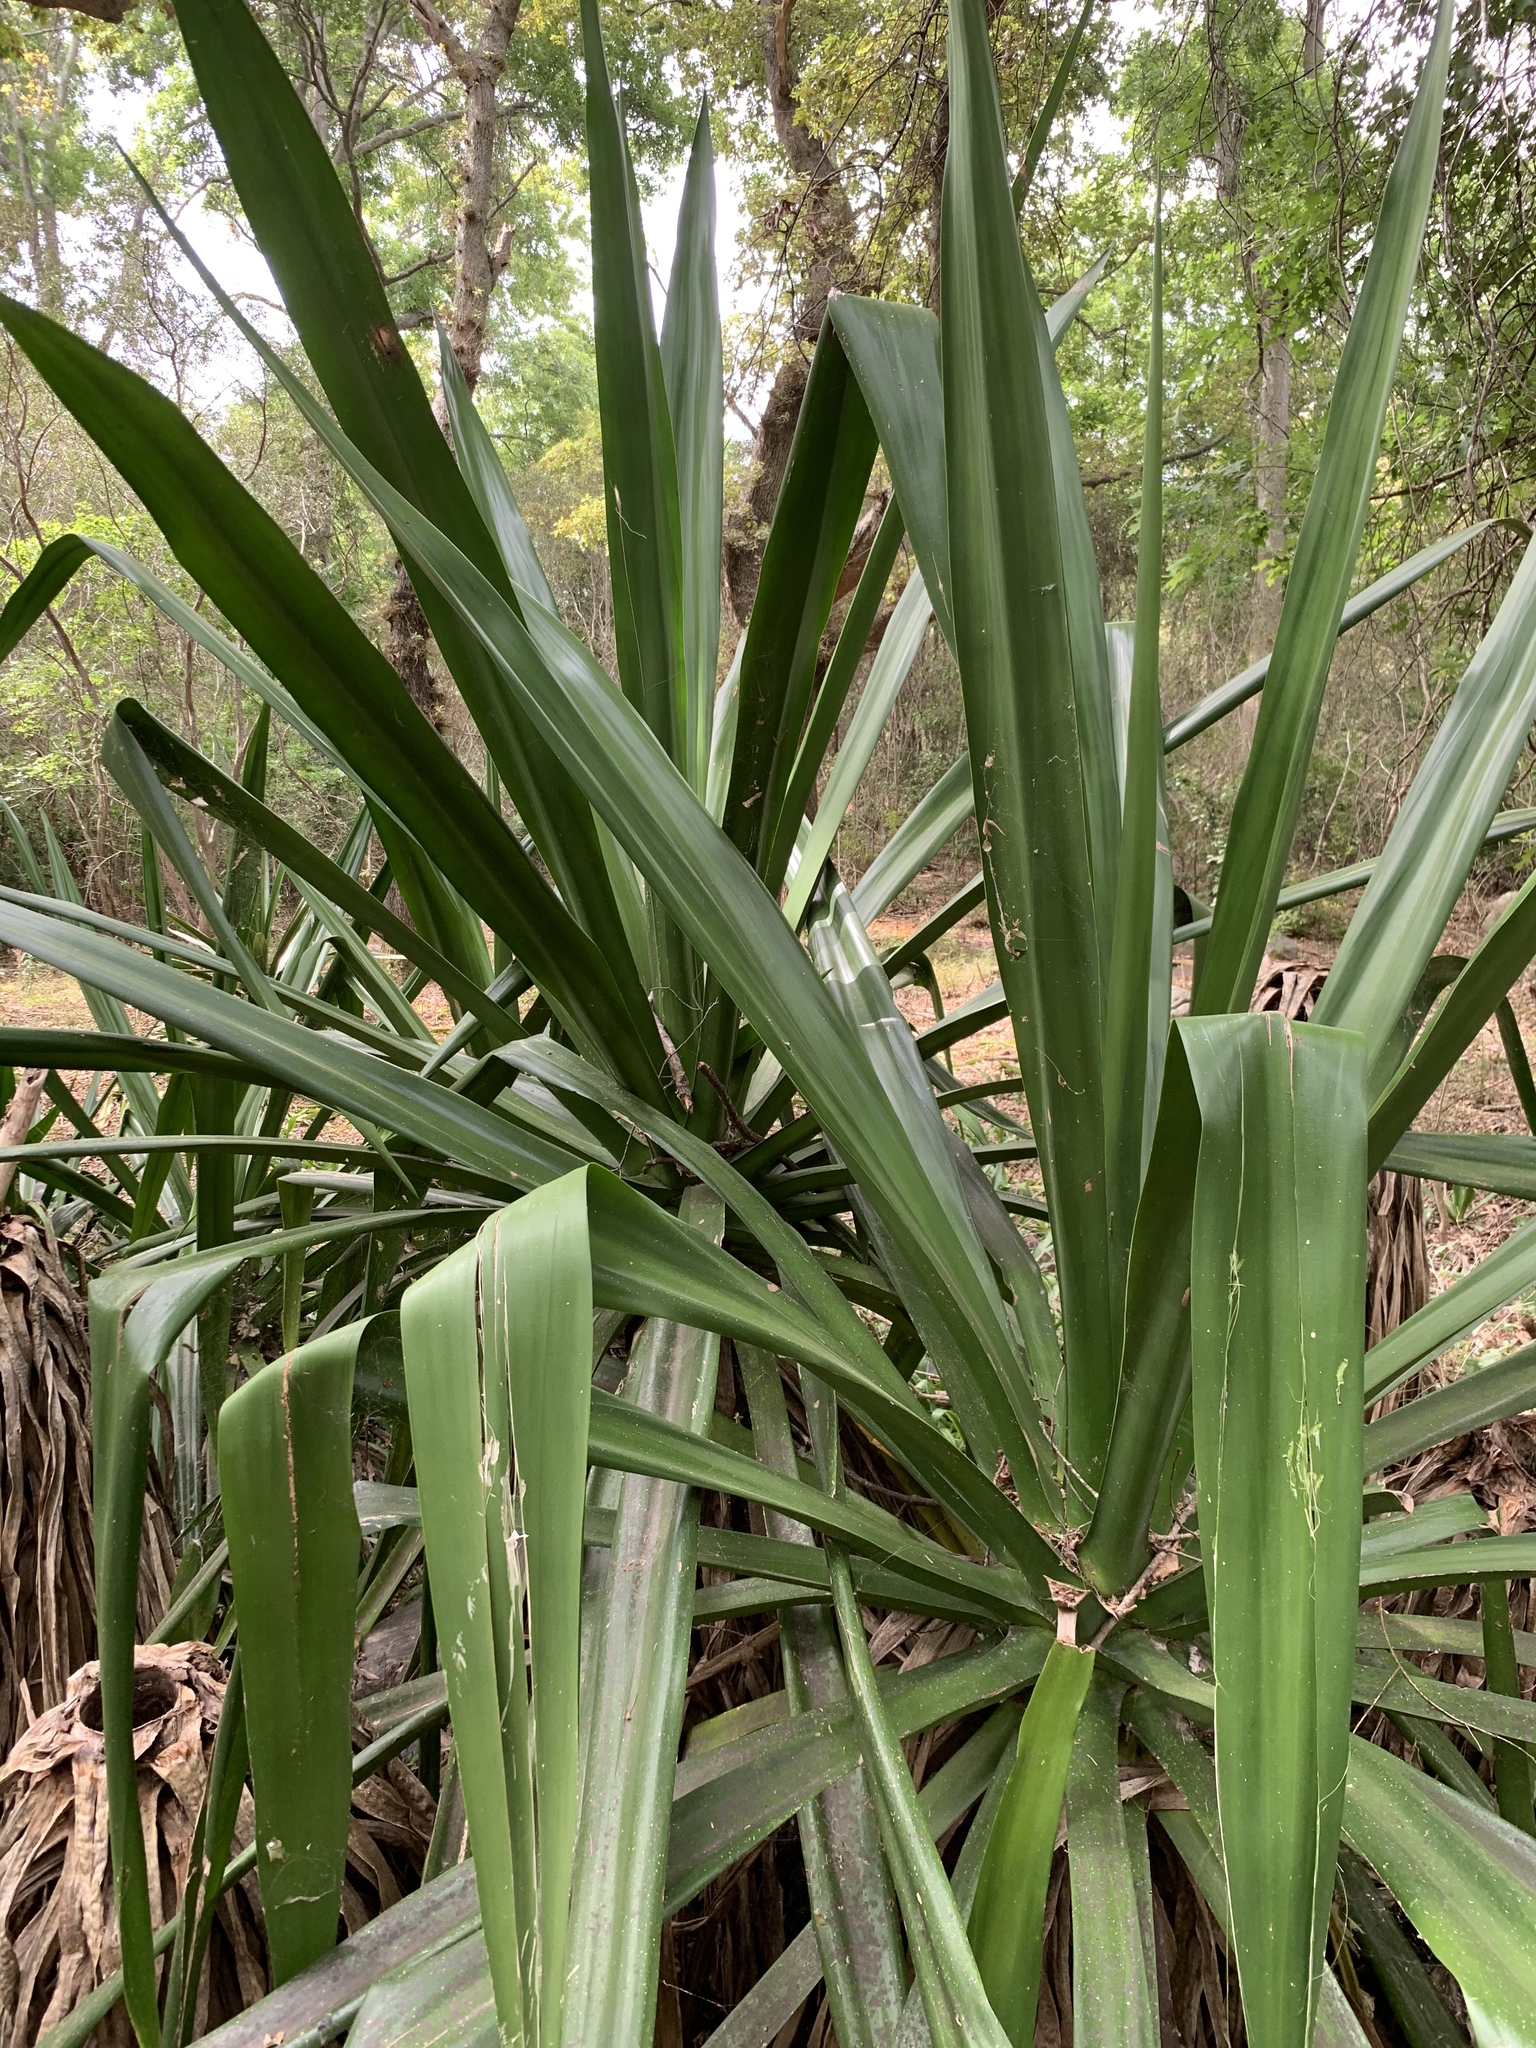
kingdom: Plantae
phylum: Tracheophyta
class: Liliopsida
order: Asparagales
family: Asparagaceae
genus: Furcraea
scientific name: Furcraea foetida
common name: Mauritius hemp
